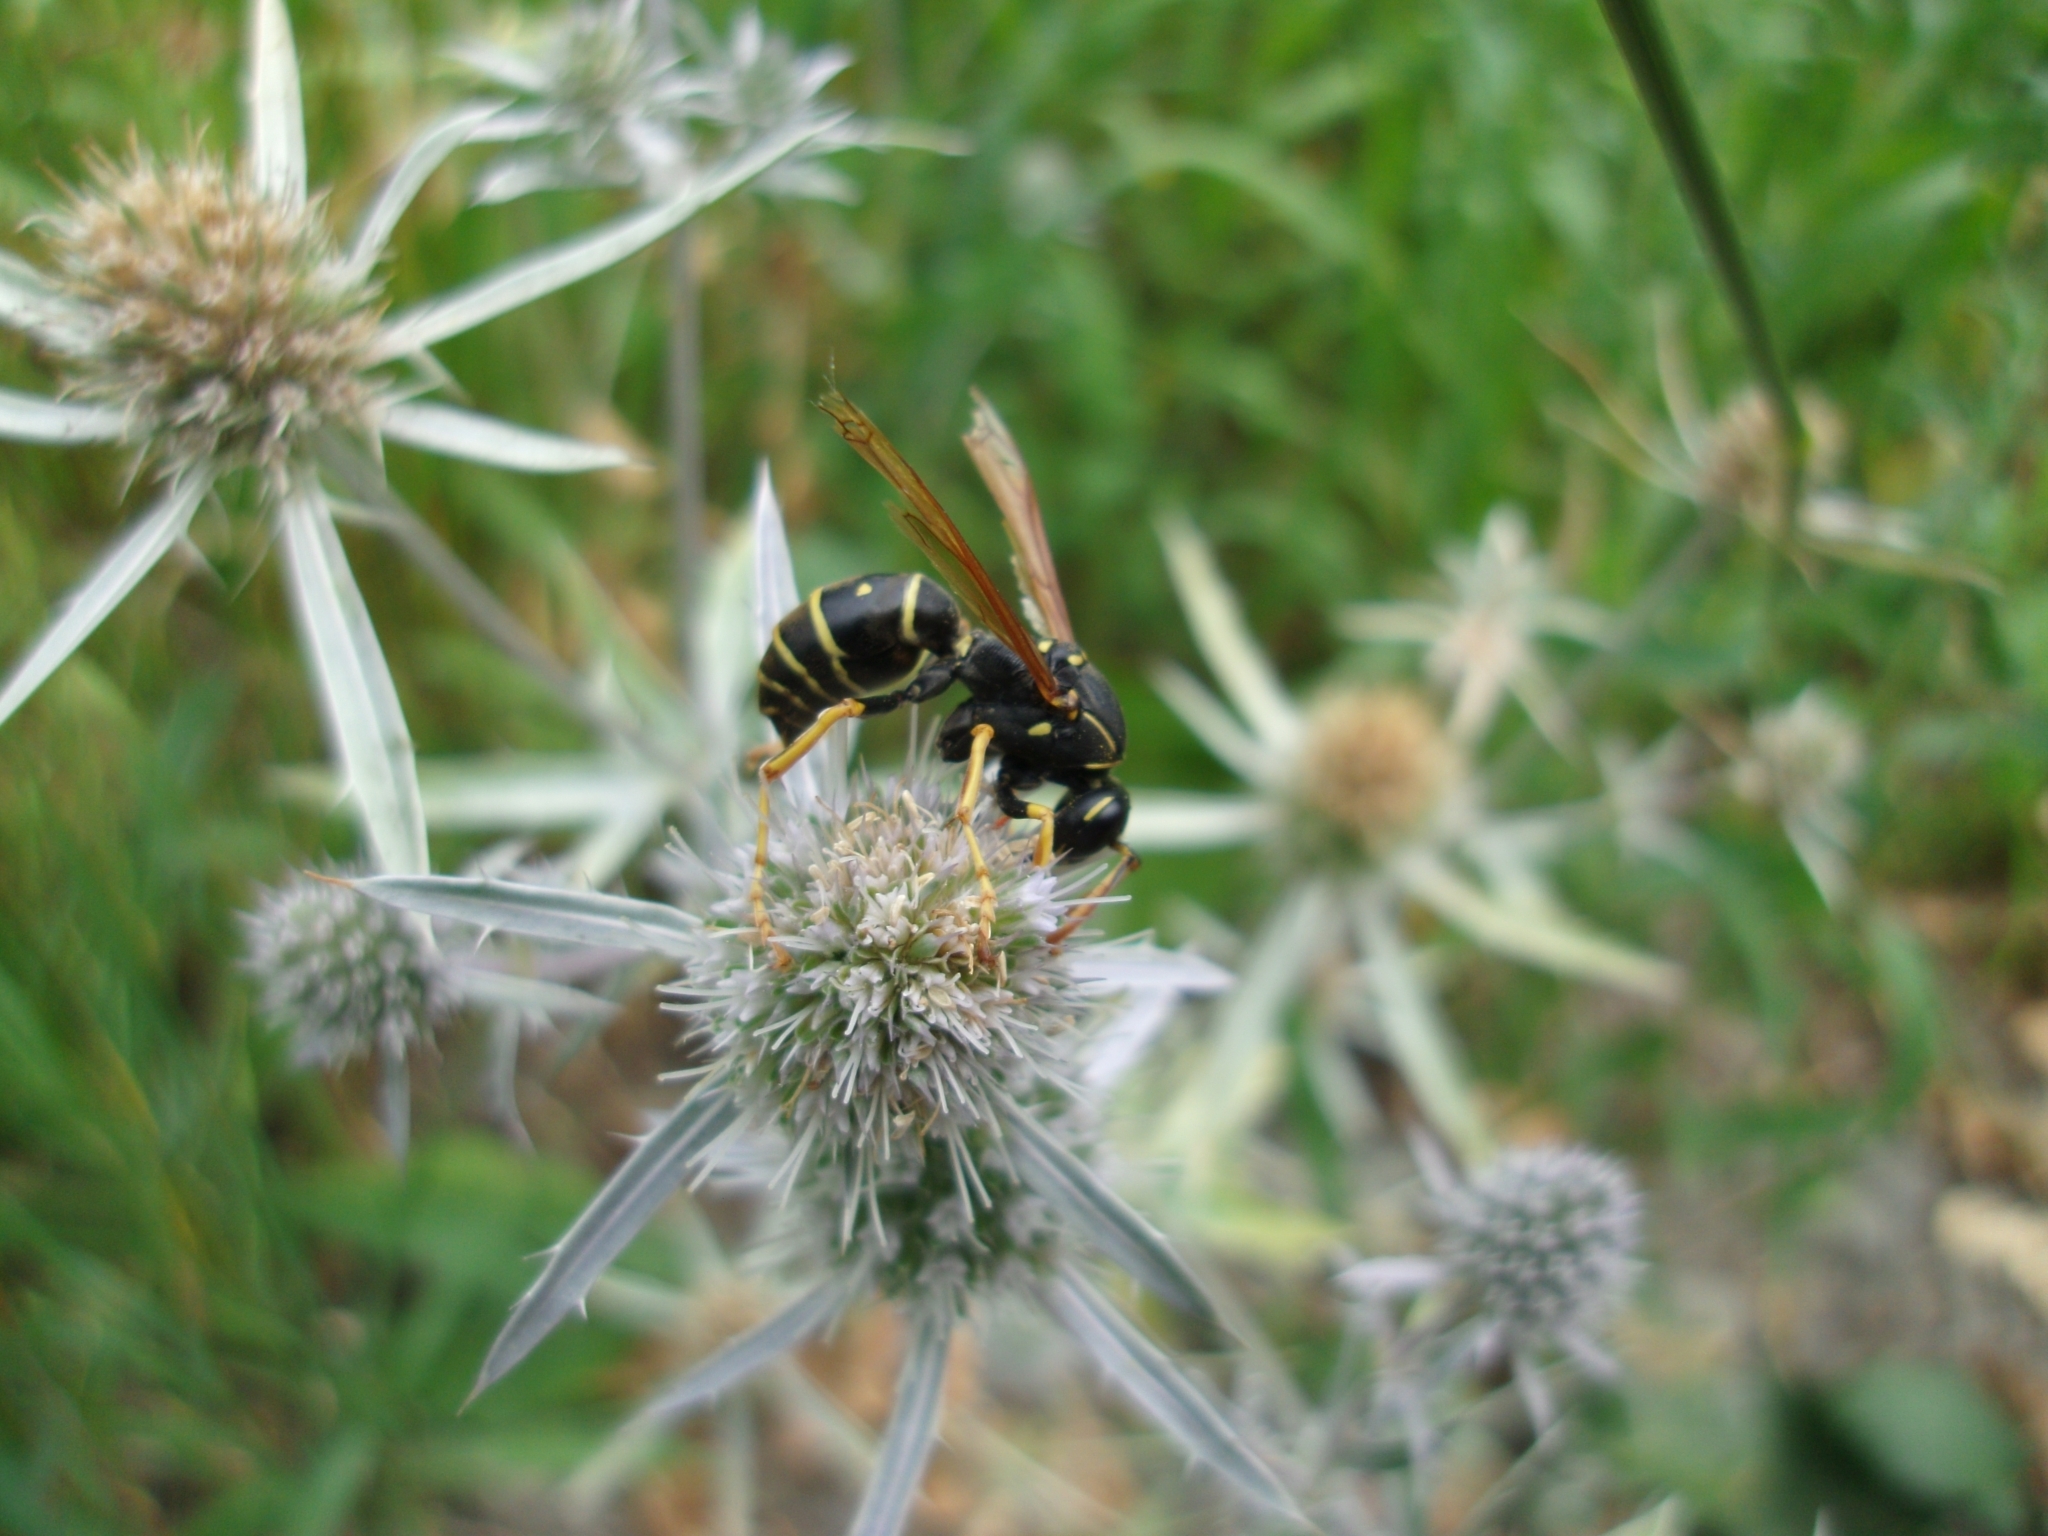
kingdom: Animalia
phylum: Arthropoda
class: Insecta
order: Hymenoptera
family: Eumenidae
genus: Polistes
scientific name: Polistes nimpha
